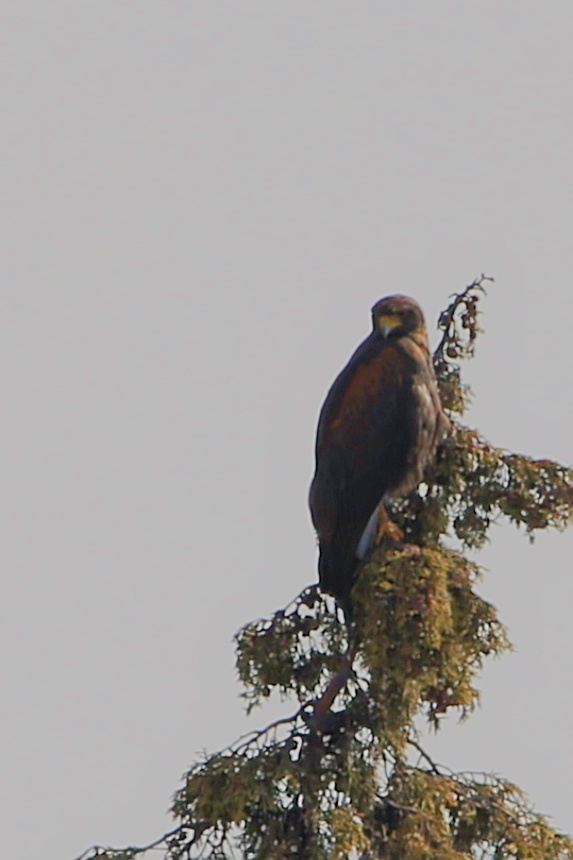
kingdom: Animalia
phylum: Chordata
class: Aves
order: Accipitriformes
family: Accipitridae
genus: Parabuteo
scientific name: Parabuteo unicinctus
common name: Harris's hawk
